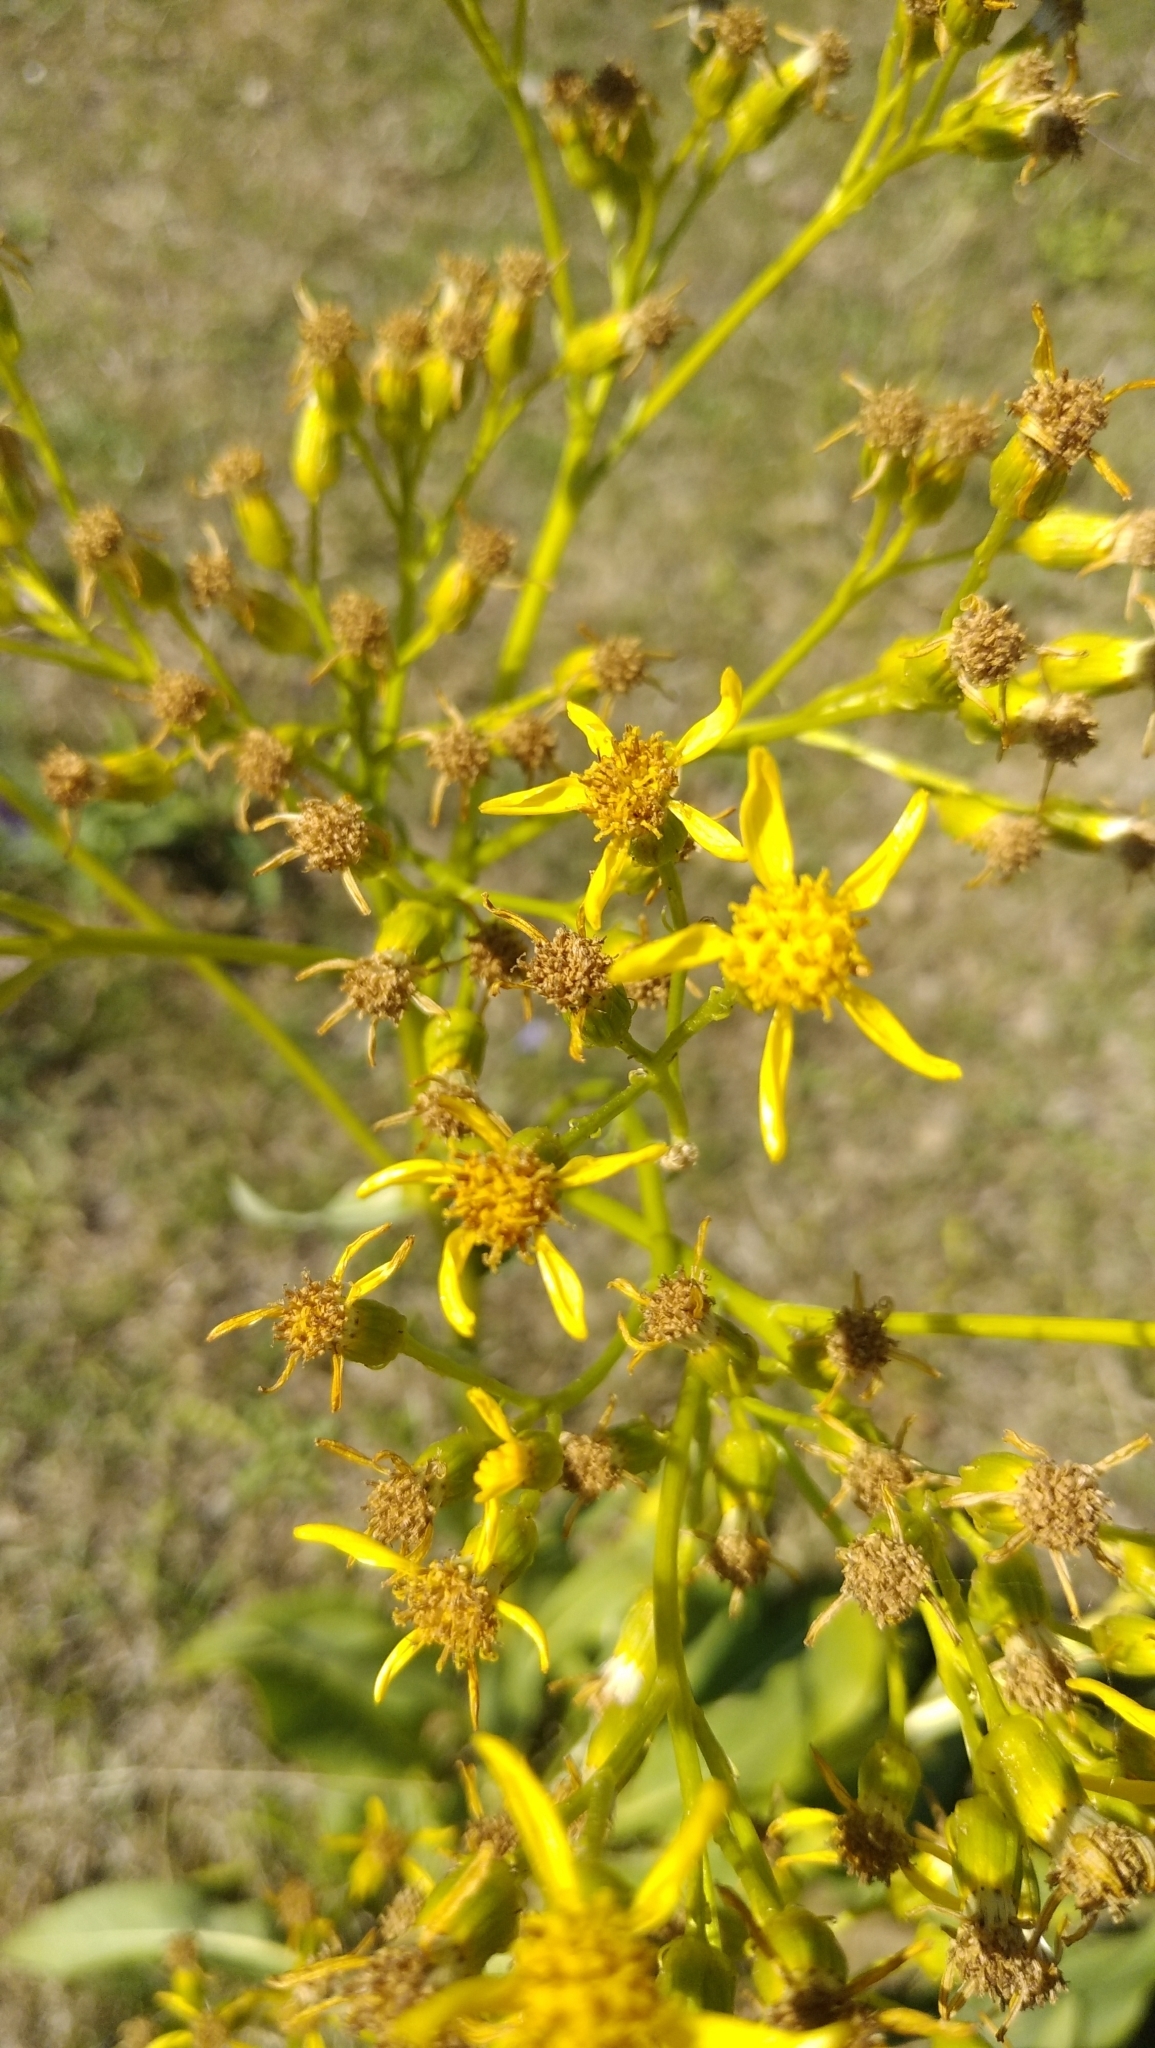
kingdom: Plantae
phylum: Tracheophyta
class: Magnoliopsida
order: Asterales
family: Asteraceae
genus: Senecio
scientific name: Senecio doria
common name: Golden ragwort
